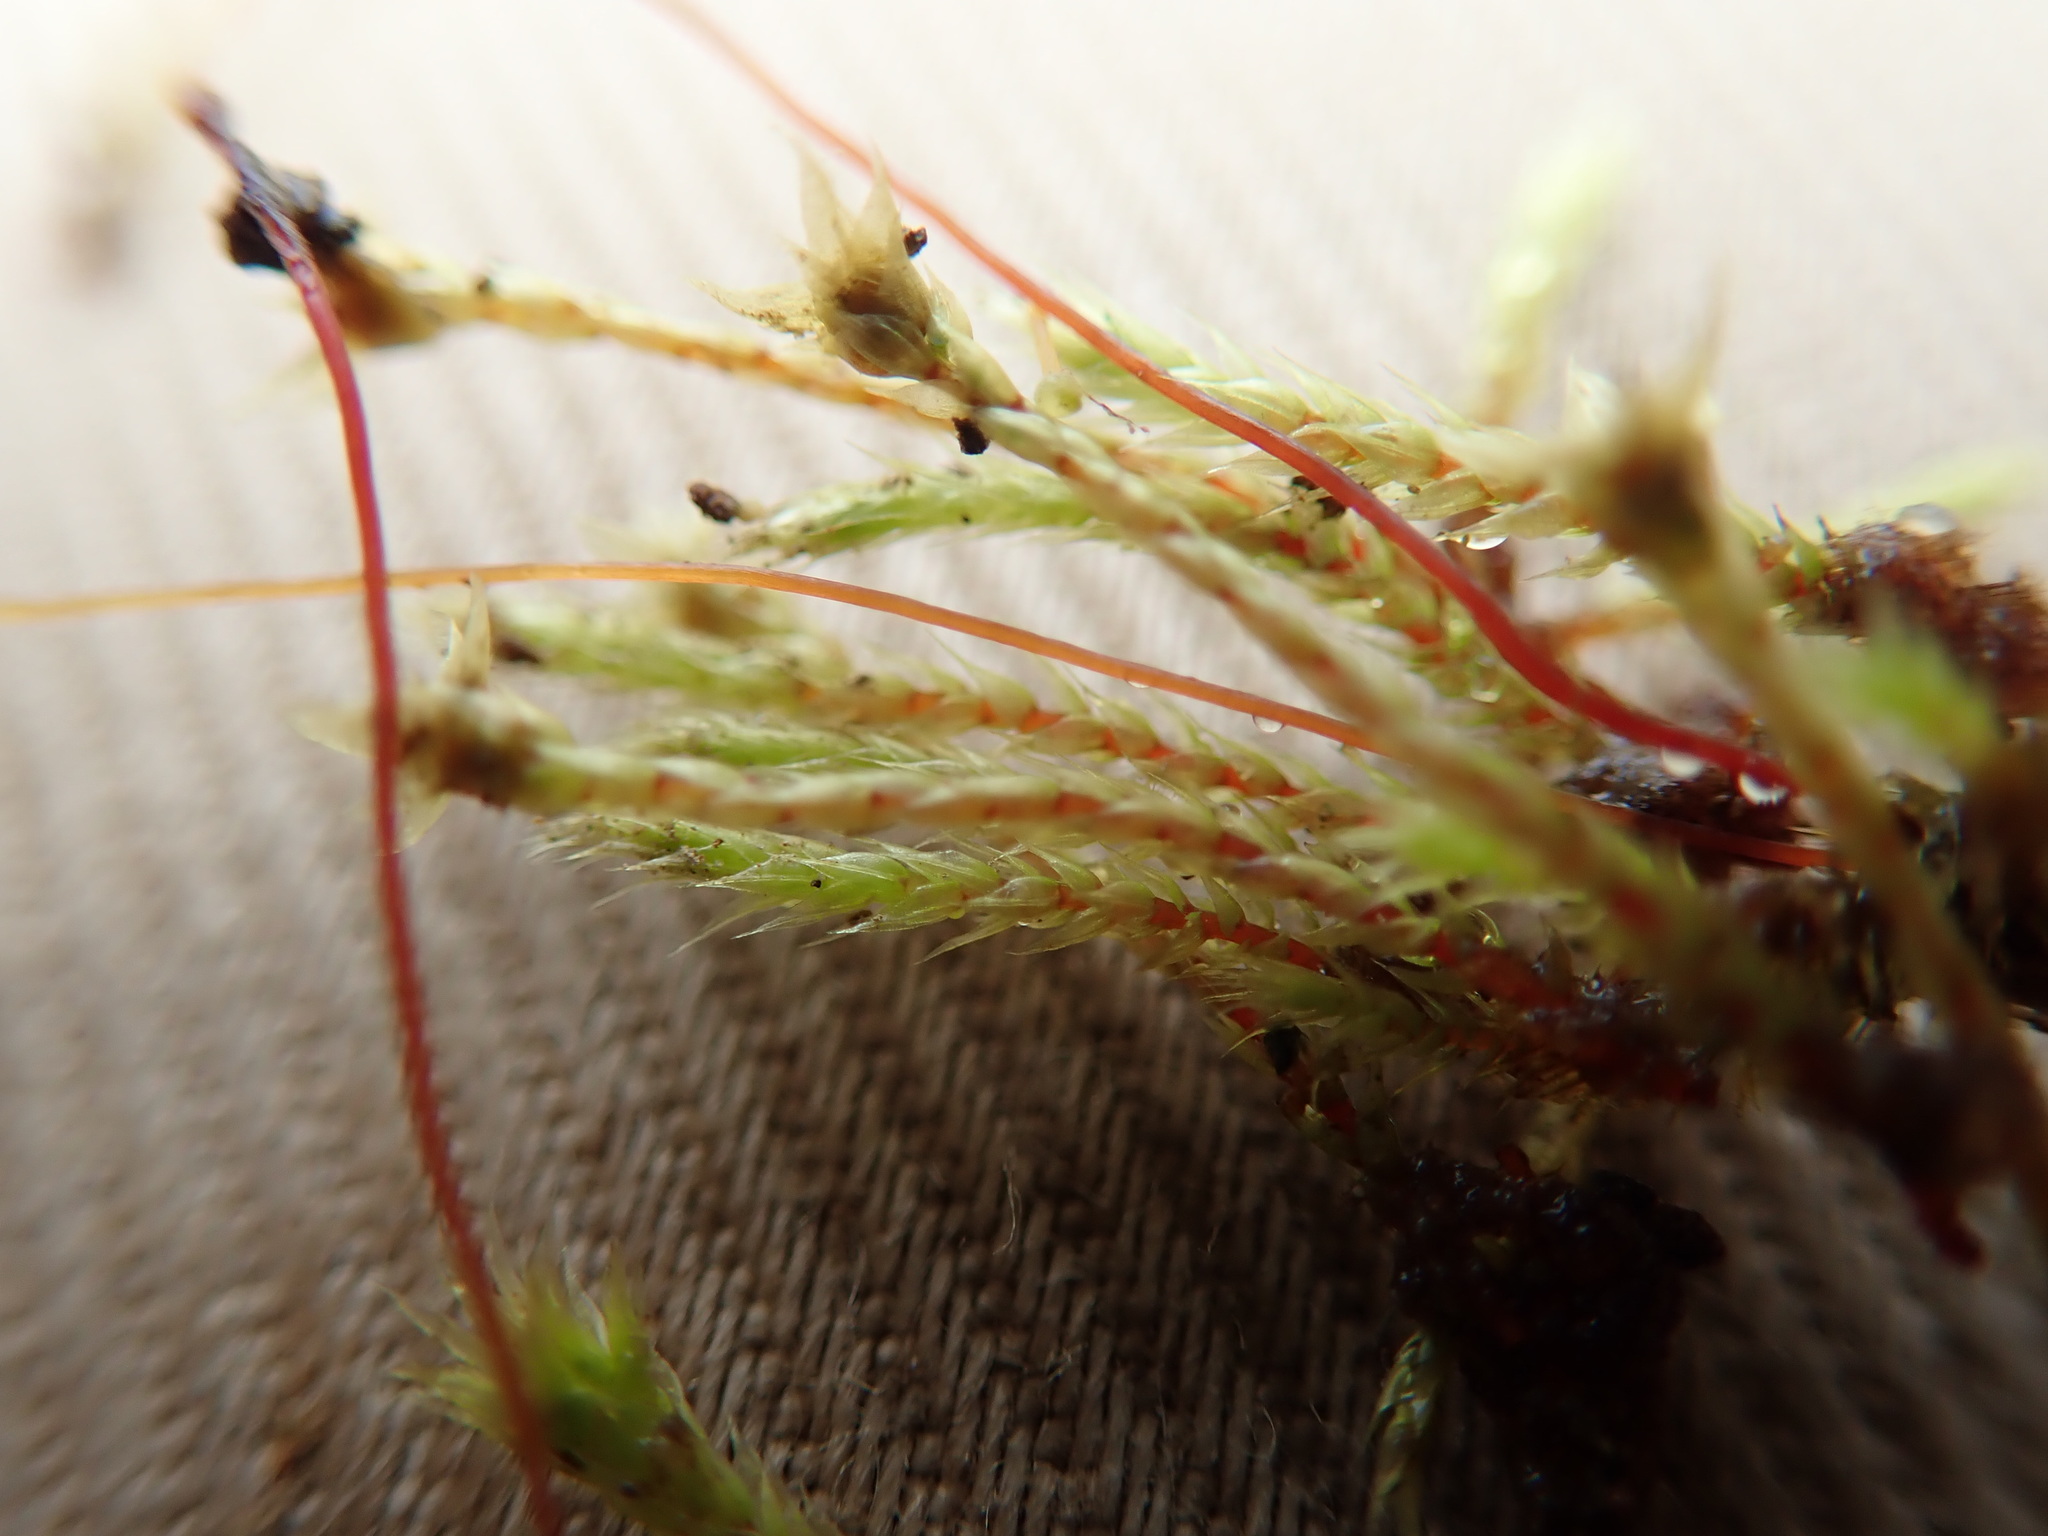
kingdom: Plantae
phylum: Bryophyta
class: Bryopsida
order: Bartramiales
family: Bartramiaceae
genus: Philonotis
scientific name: Philonotis fontana
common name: Fountain apple-moss
